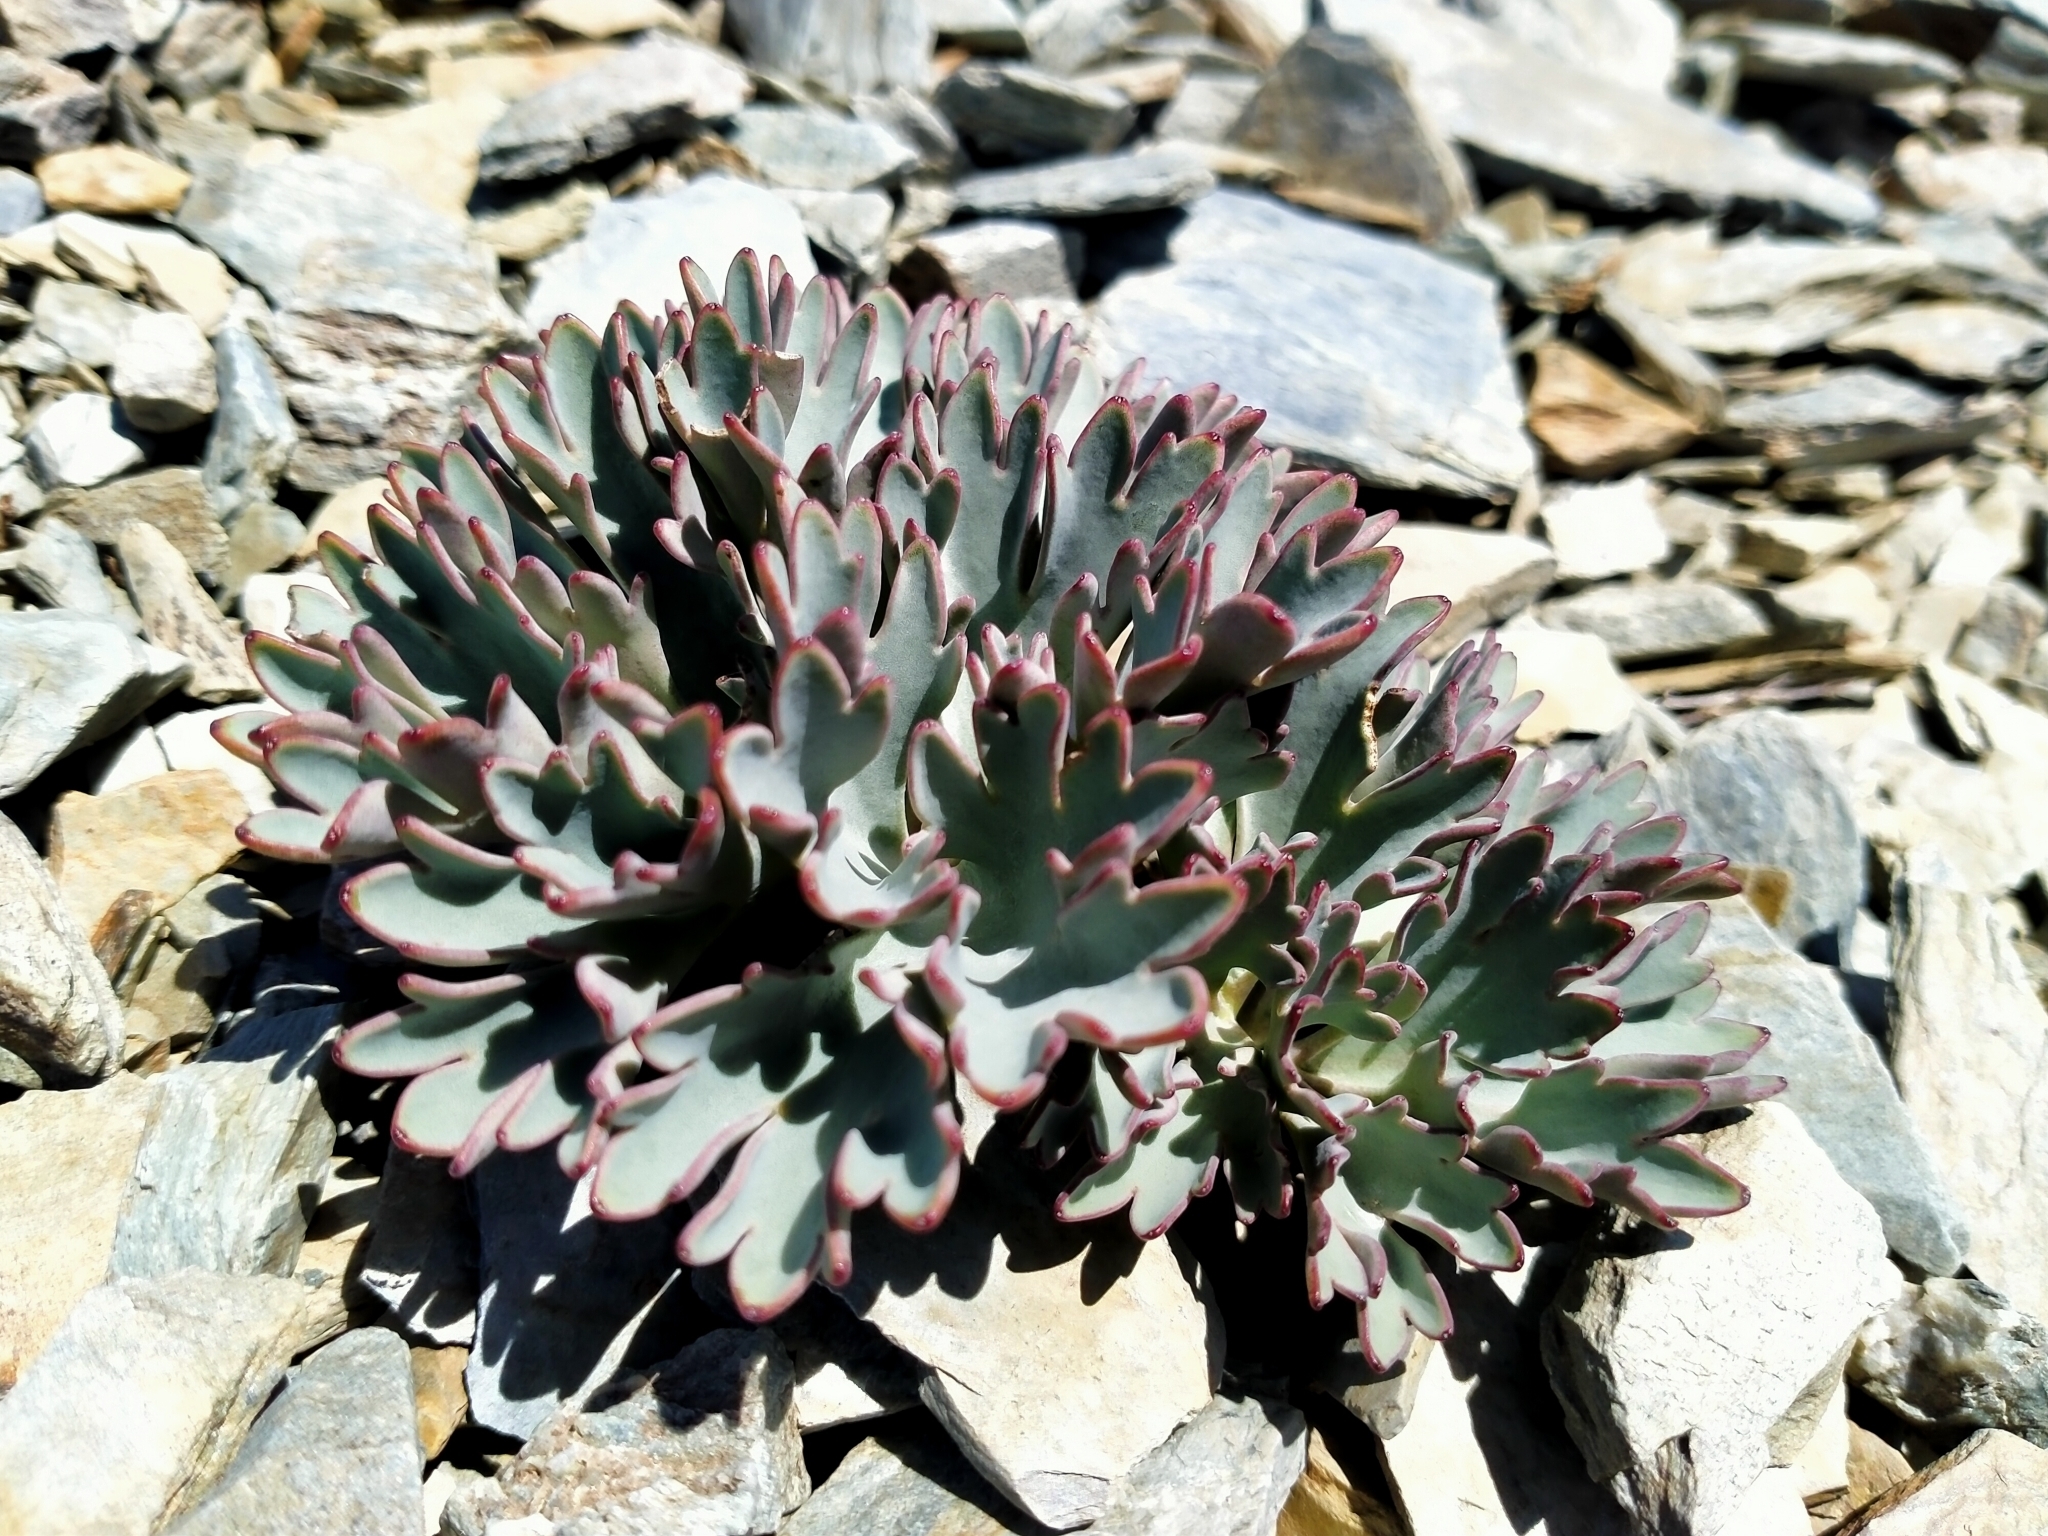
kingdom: Plantae
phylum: Tracheophyta
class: Magnoliopsida
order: Ranunculales
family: Ranunculaceae
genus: Ranunculus
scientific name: Ranunculus acraeus
